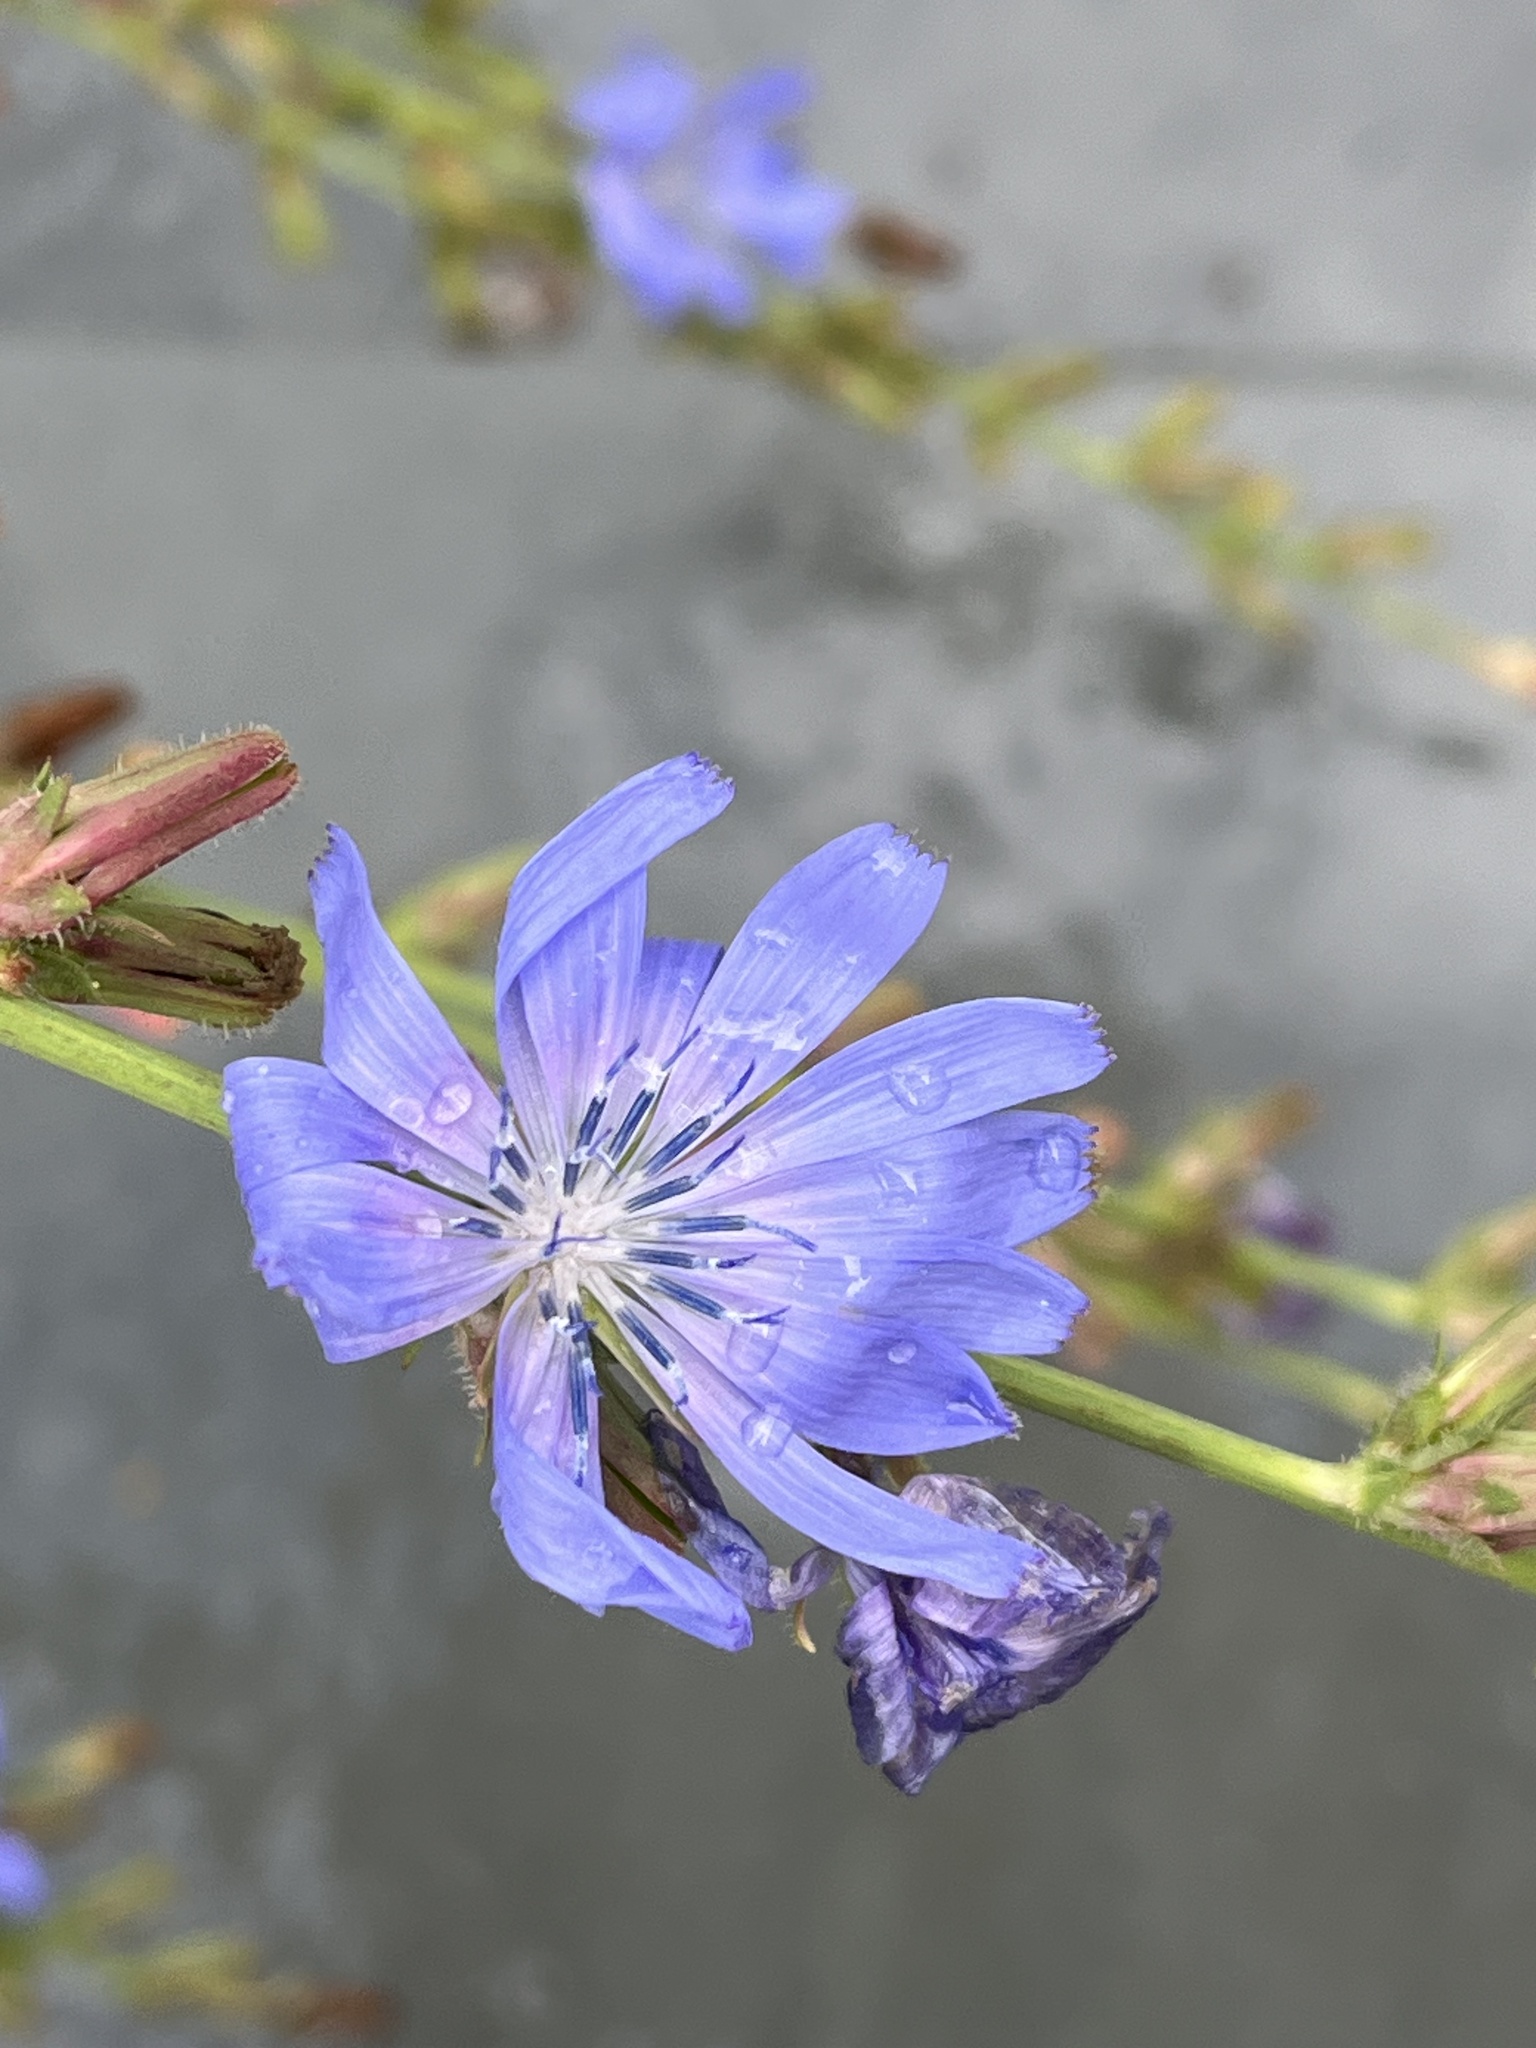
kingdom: Plantae
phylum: Tracheophyta
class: Magnoliopsida
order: Asterales
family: Asteraceae
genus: Cichorium
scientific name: Cichorium intybus
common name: Chicory
